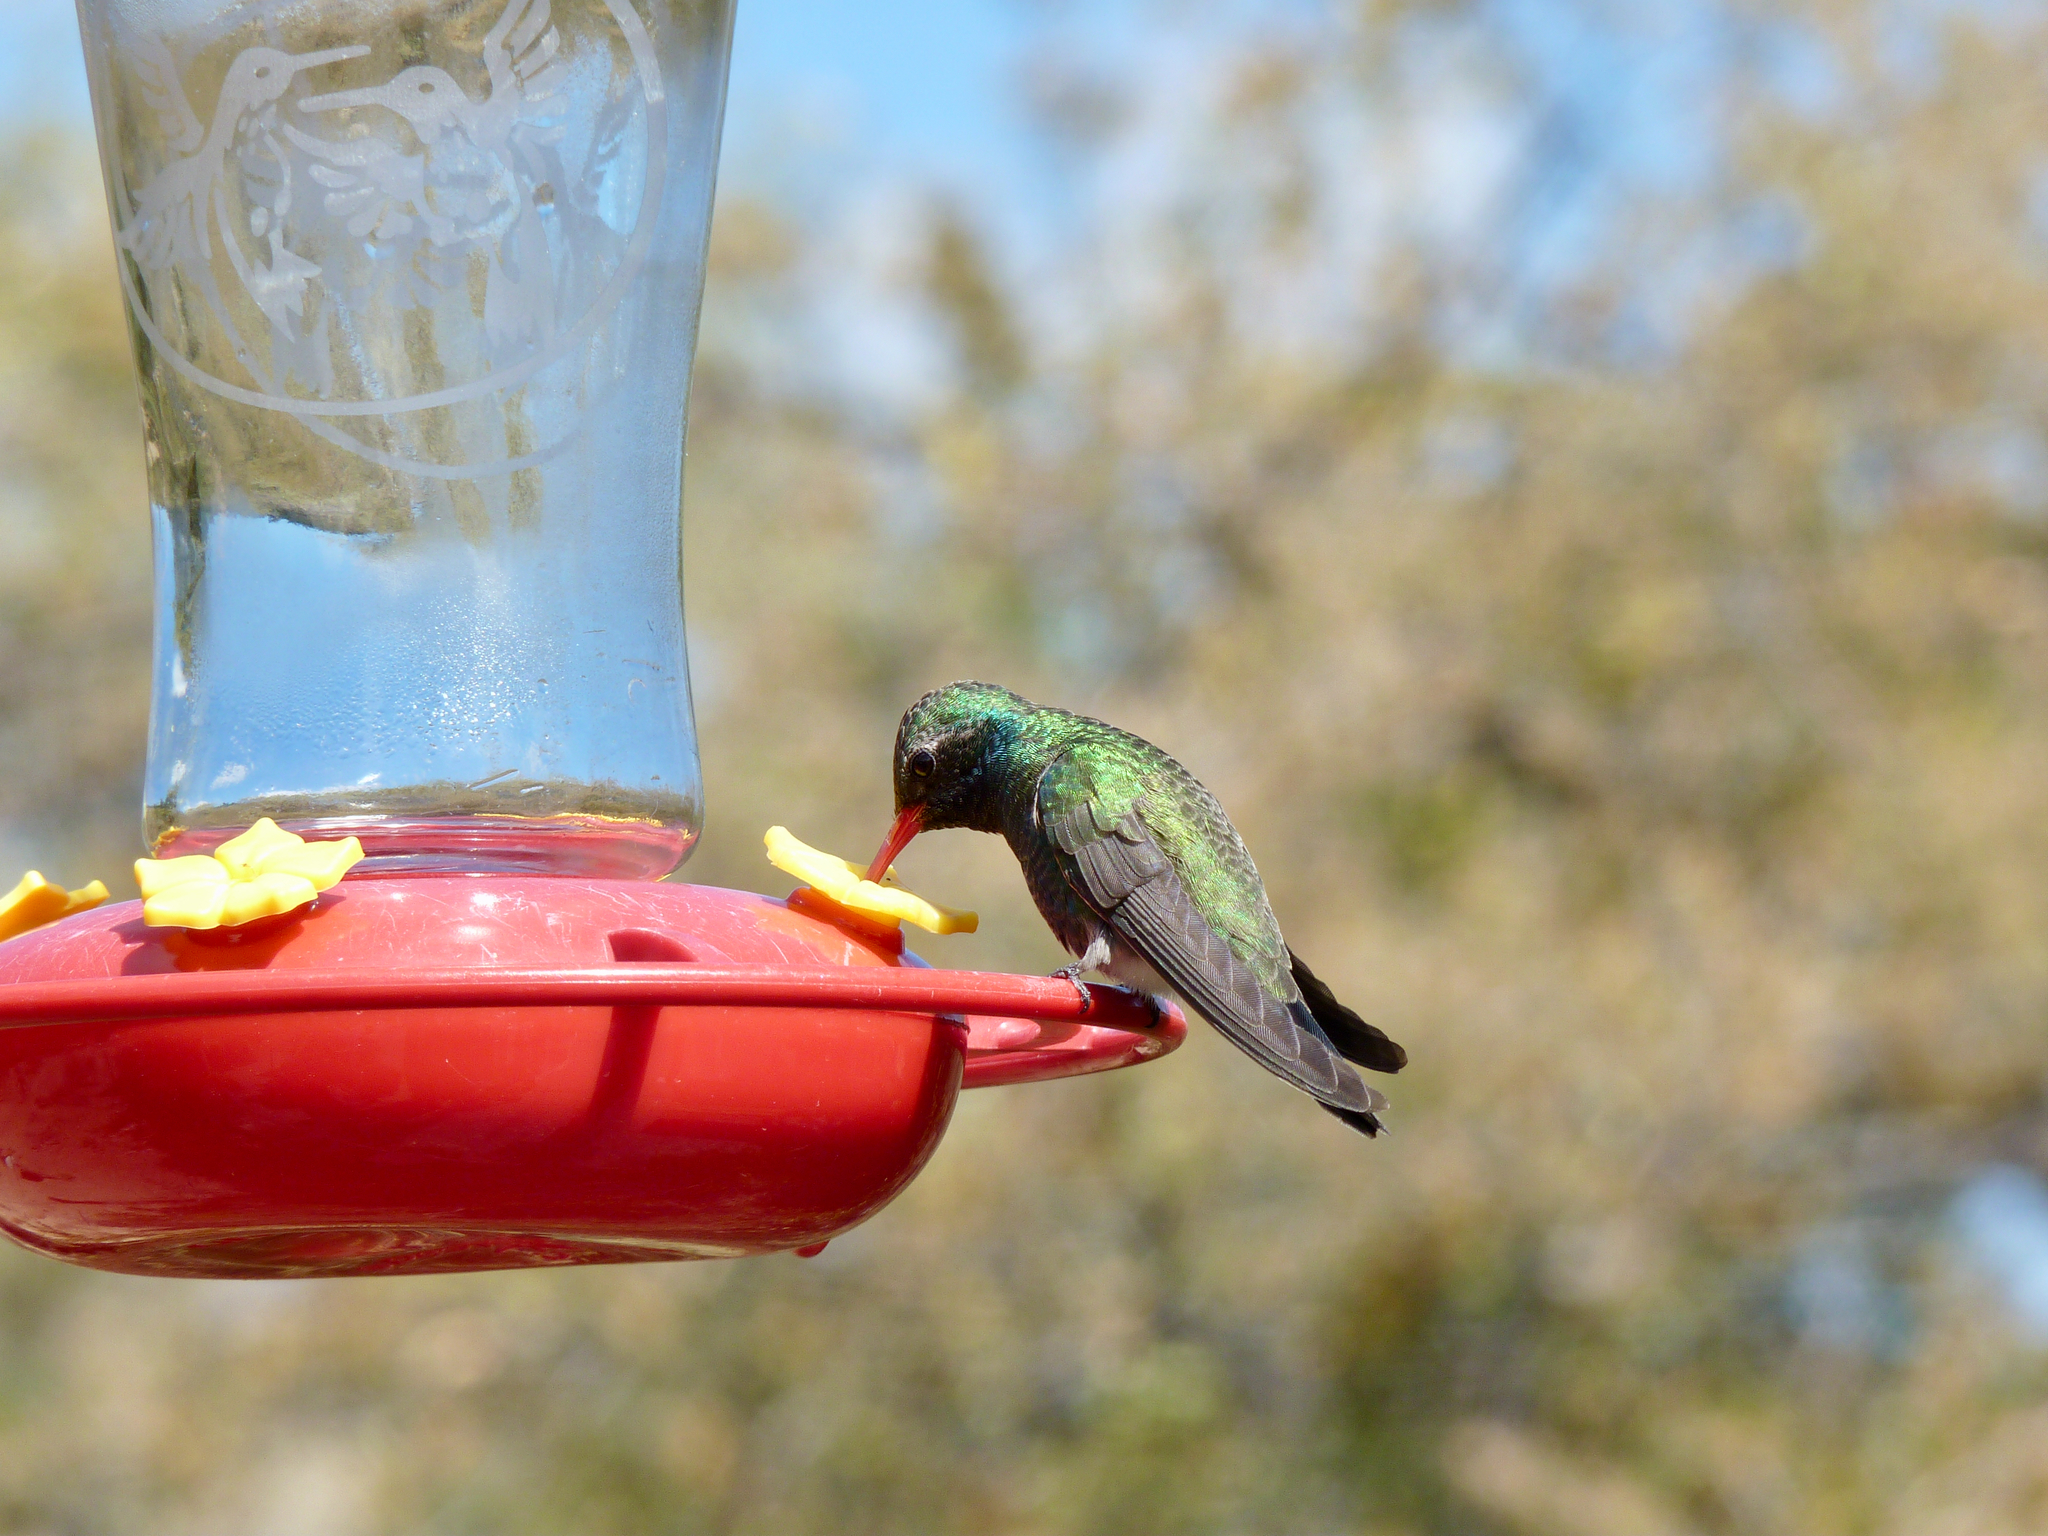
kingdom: Animalia
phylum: Chordata
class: Aves
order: Apodiformes
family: Trochilidae
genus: Cynanthus
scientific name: Cynanthus latirostris
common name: Broad-billed hummingbird
